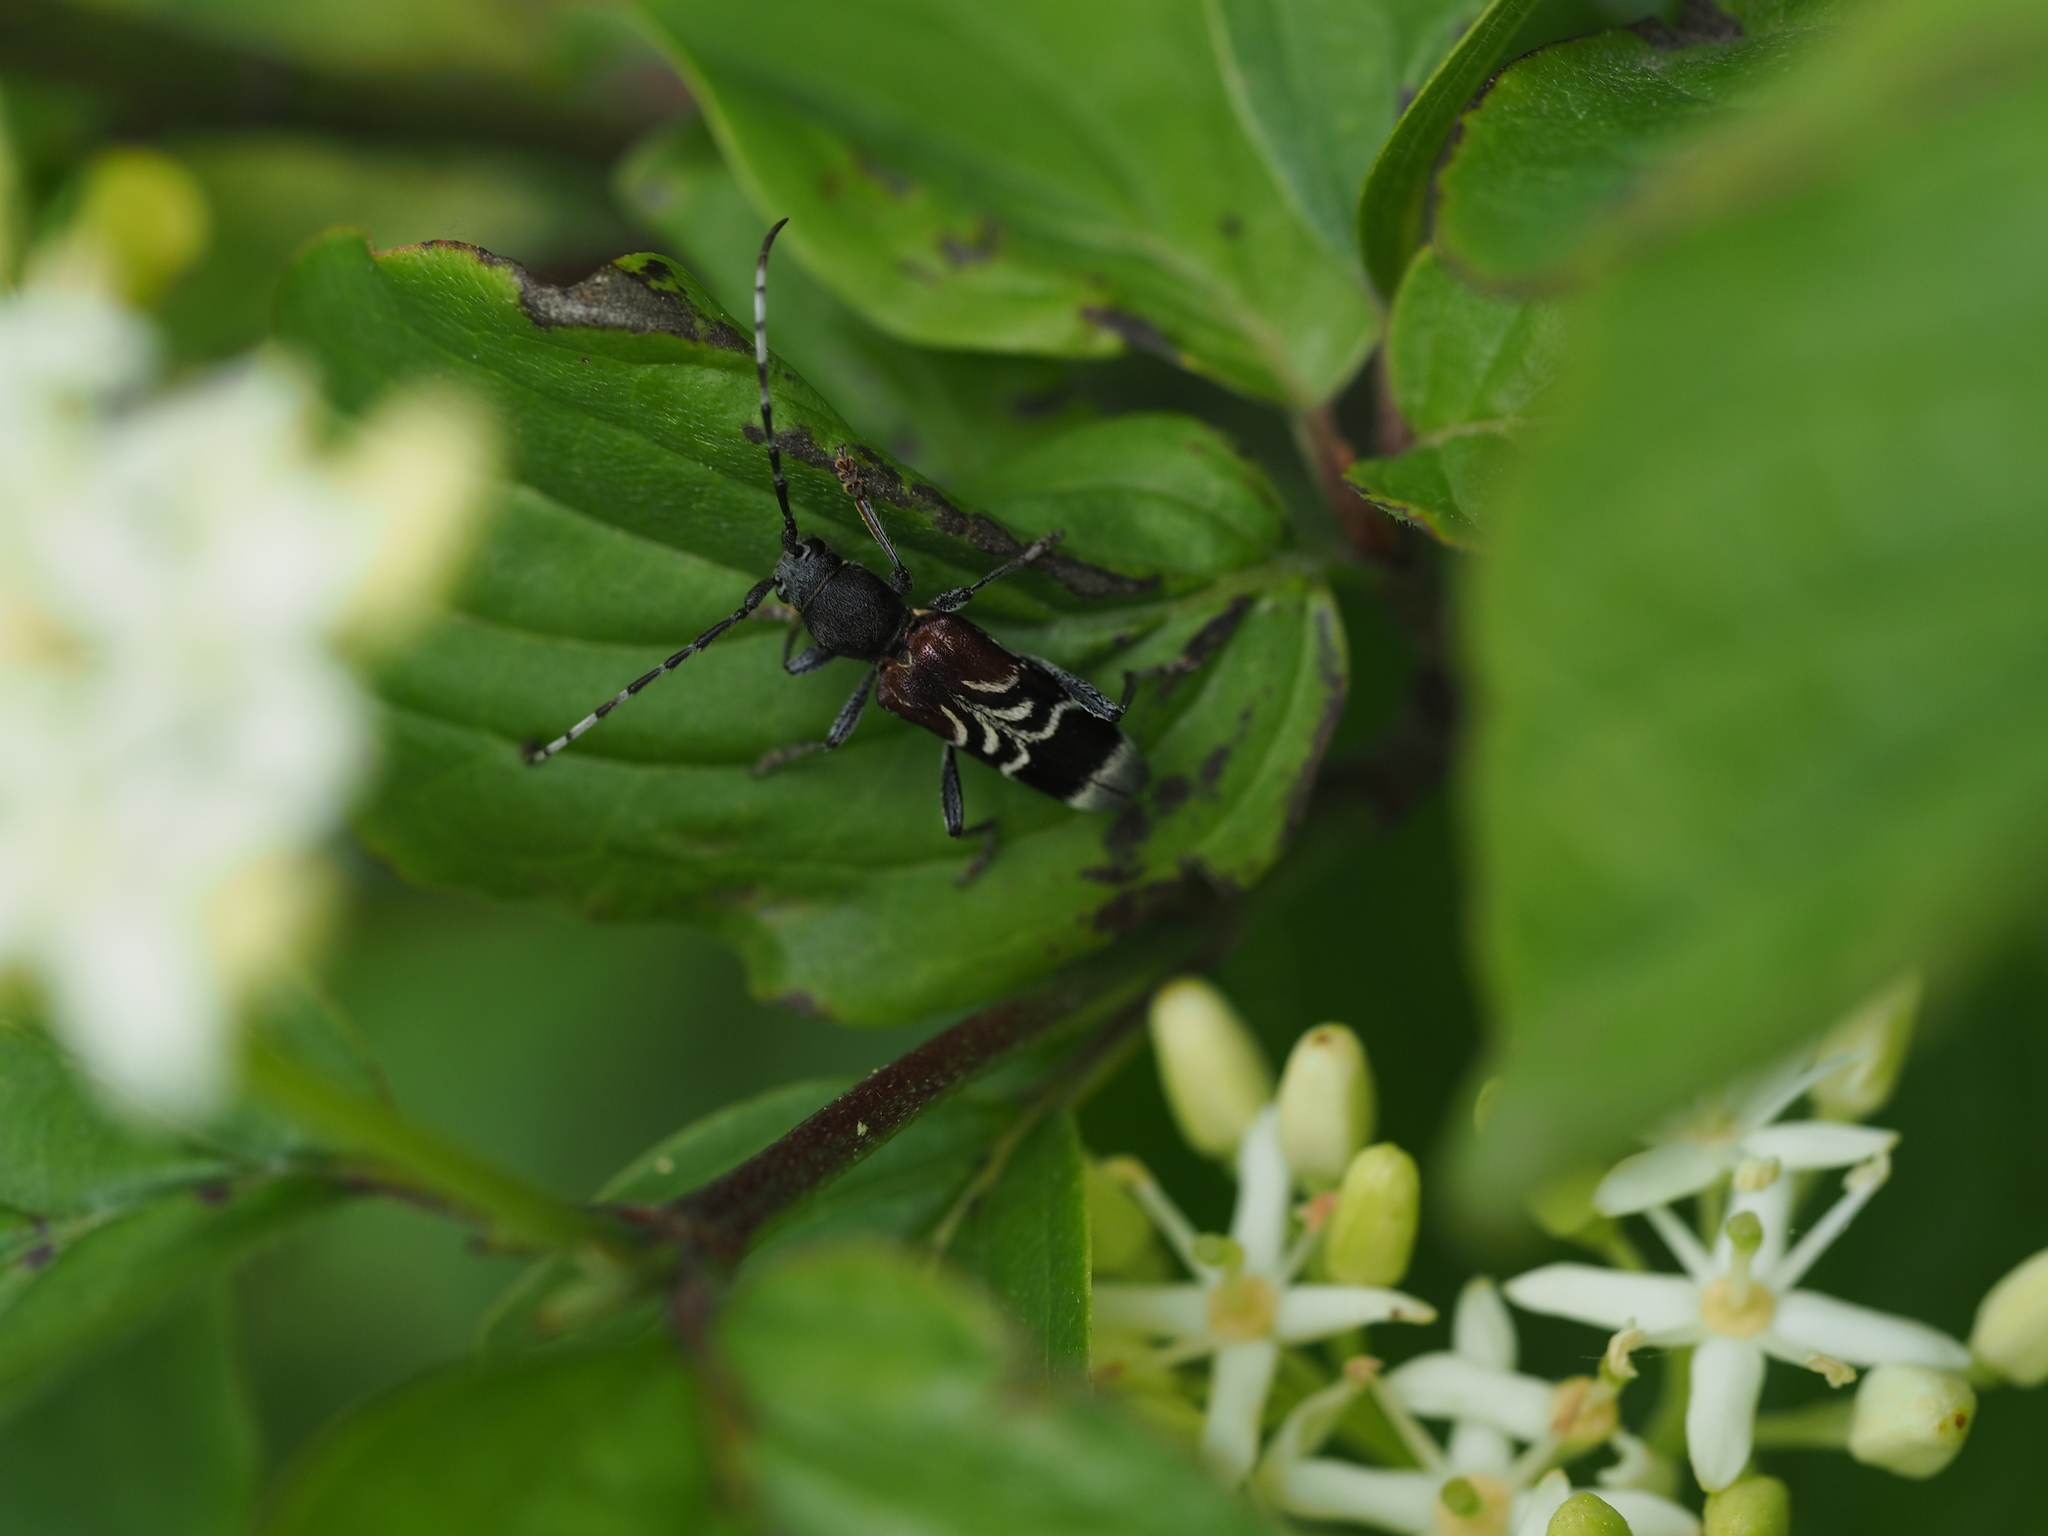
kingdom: Animalia
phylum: Arthropoda
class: Insecta
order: Coleoptera
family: Cerambycidae
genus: Anaglyptus
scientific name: Anaglyptus mysticus
